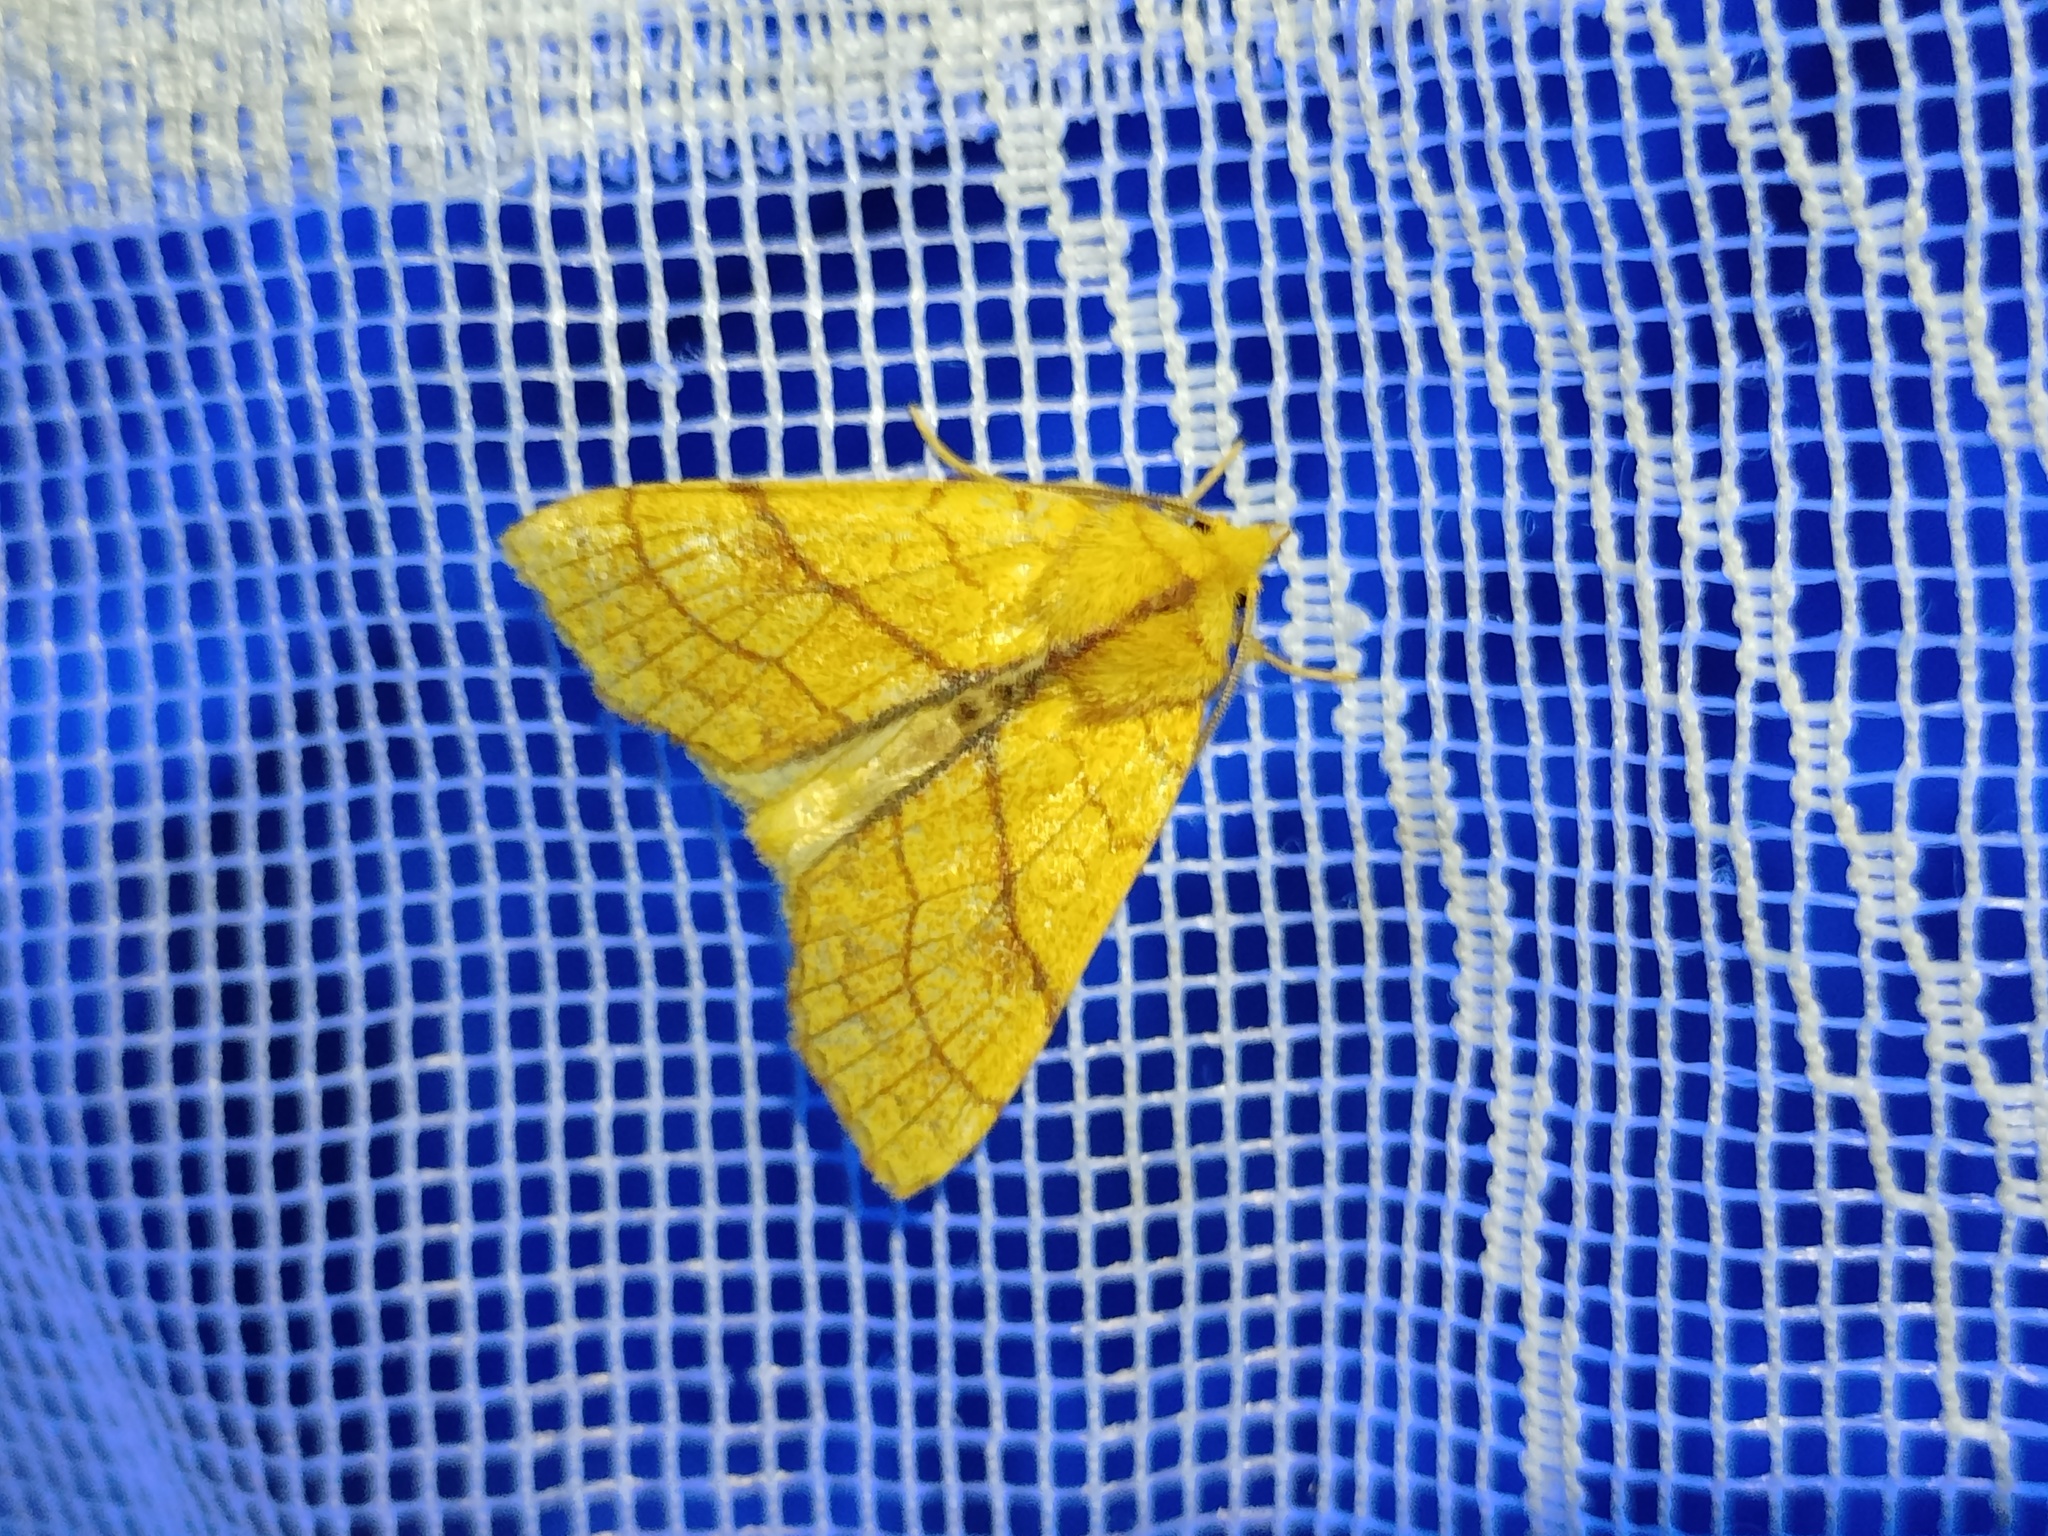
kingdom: Animalia
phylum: Arthropoda
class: Insecta
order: Lepidoptera
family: Noctuidae
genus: Tiliacea
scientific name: Tiliacea citrago
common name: Orange sallow
